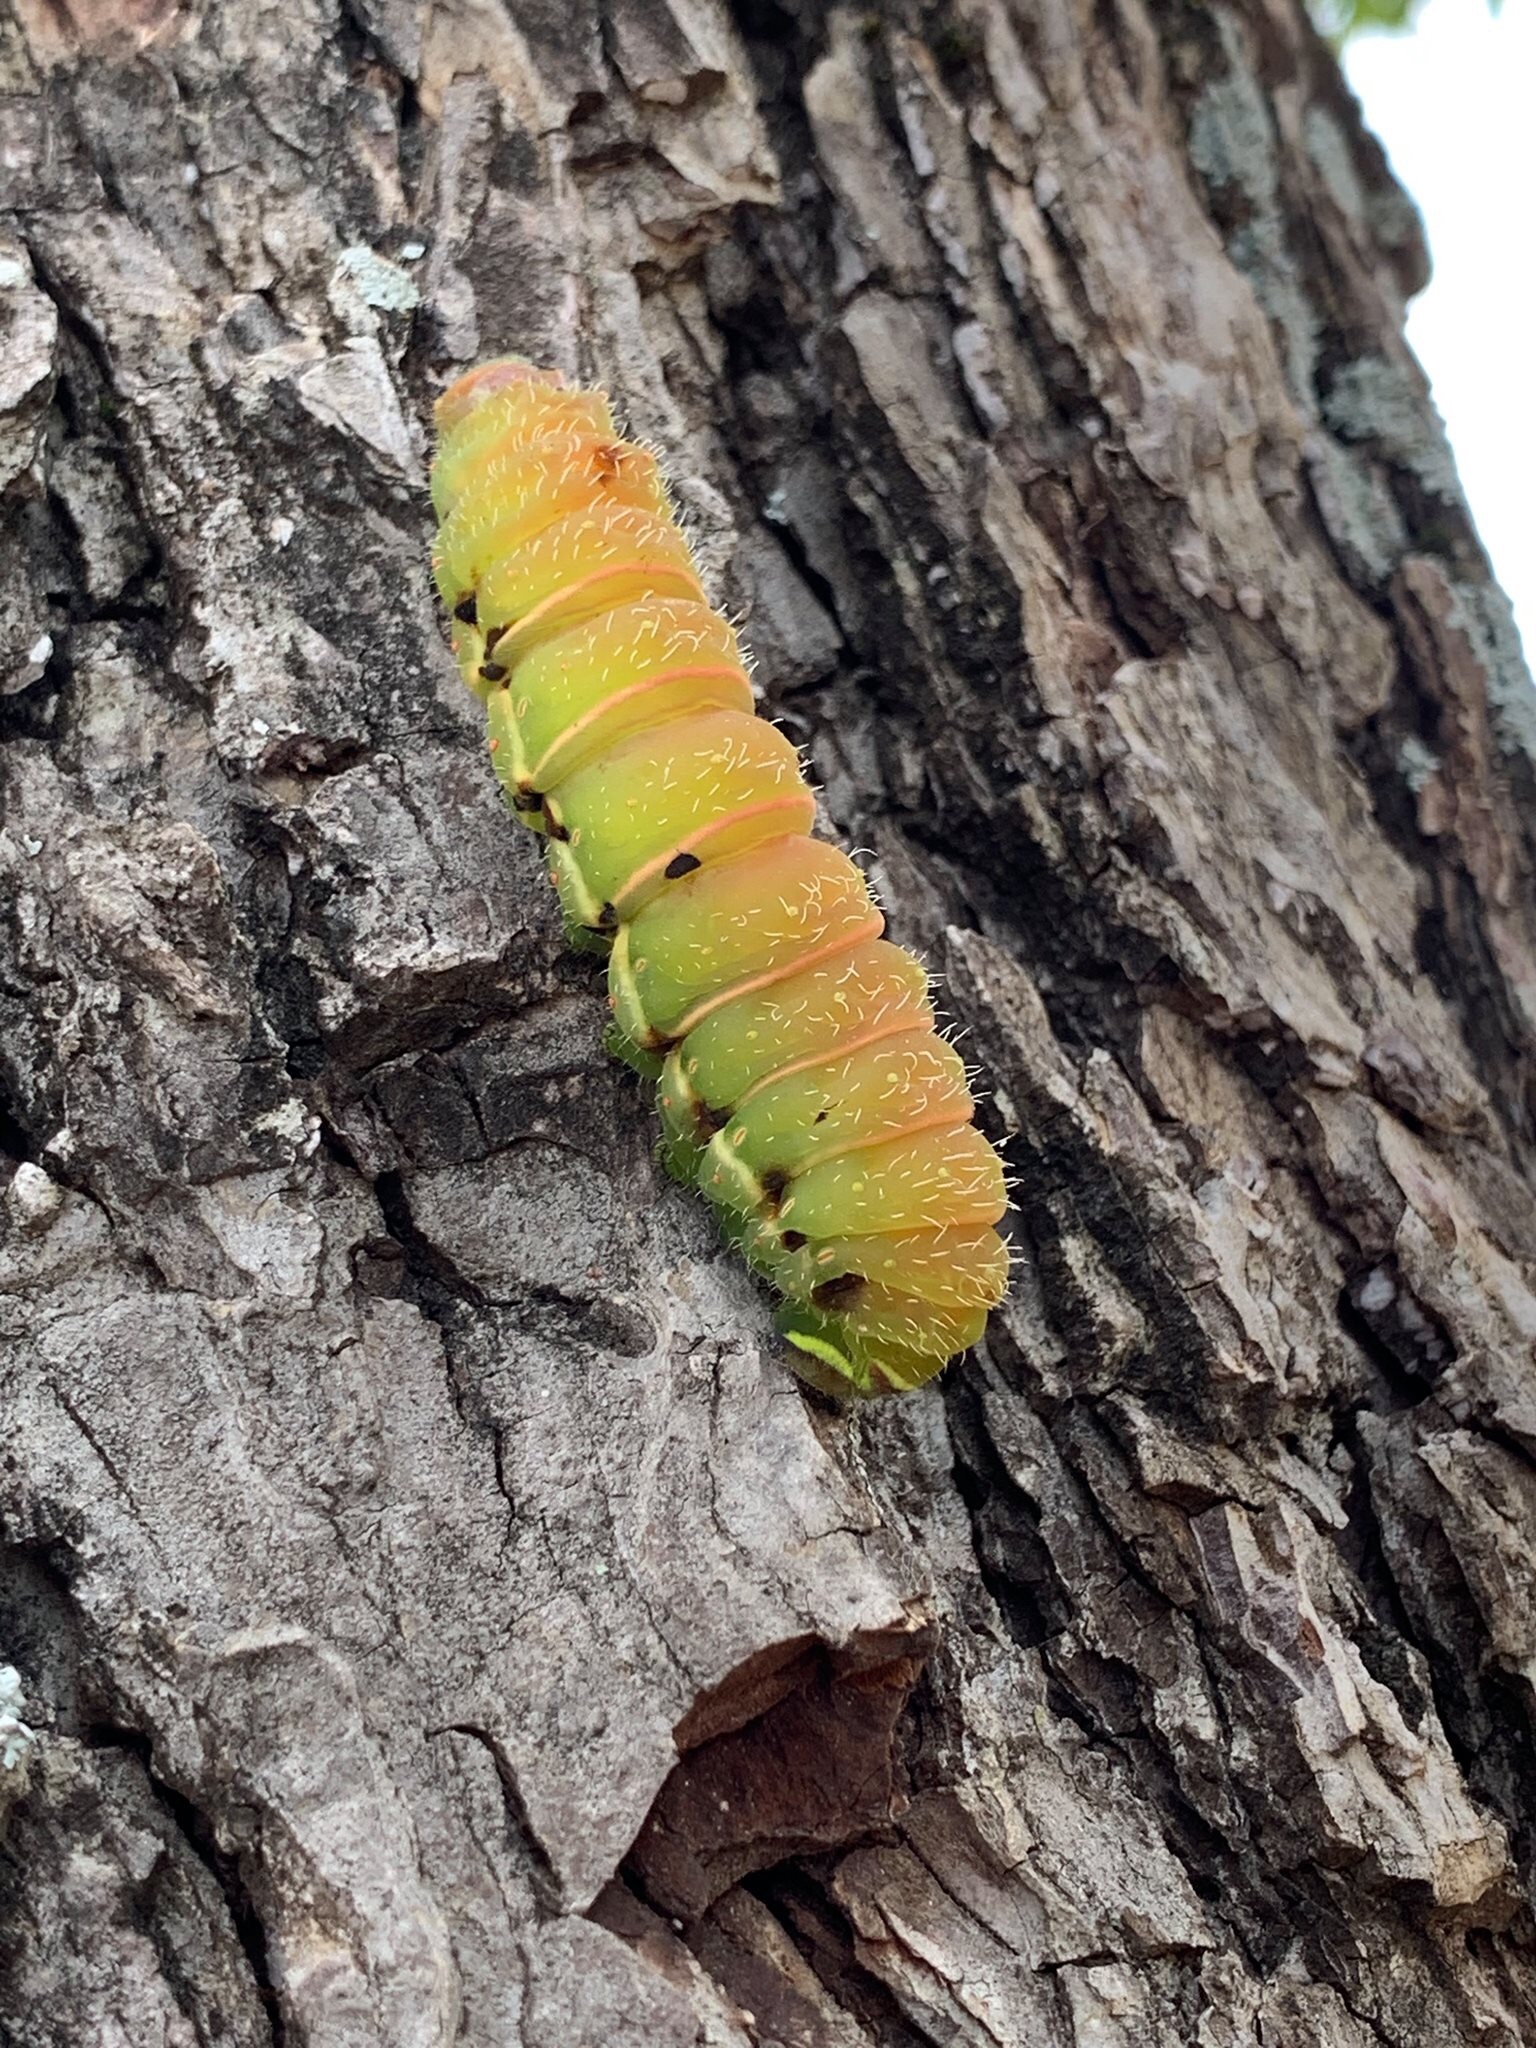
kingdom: Animalia
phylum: Arthropoda
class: Insecta
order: Lepidoptera
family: Saturniidae
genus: Actias
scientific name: Actias luna
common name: Luna moth
